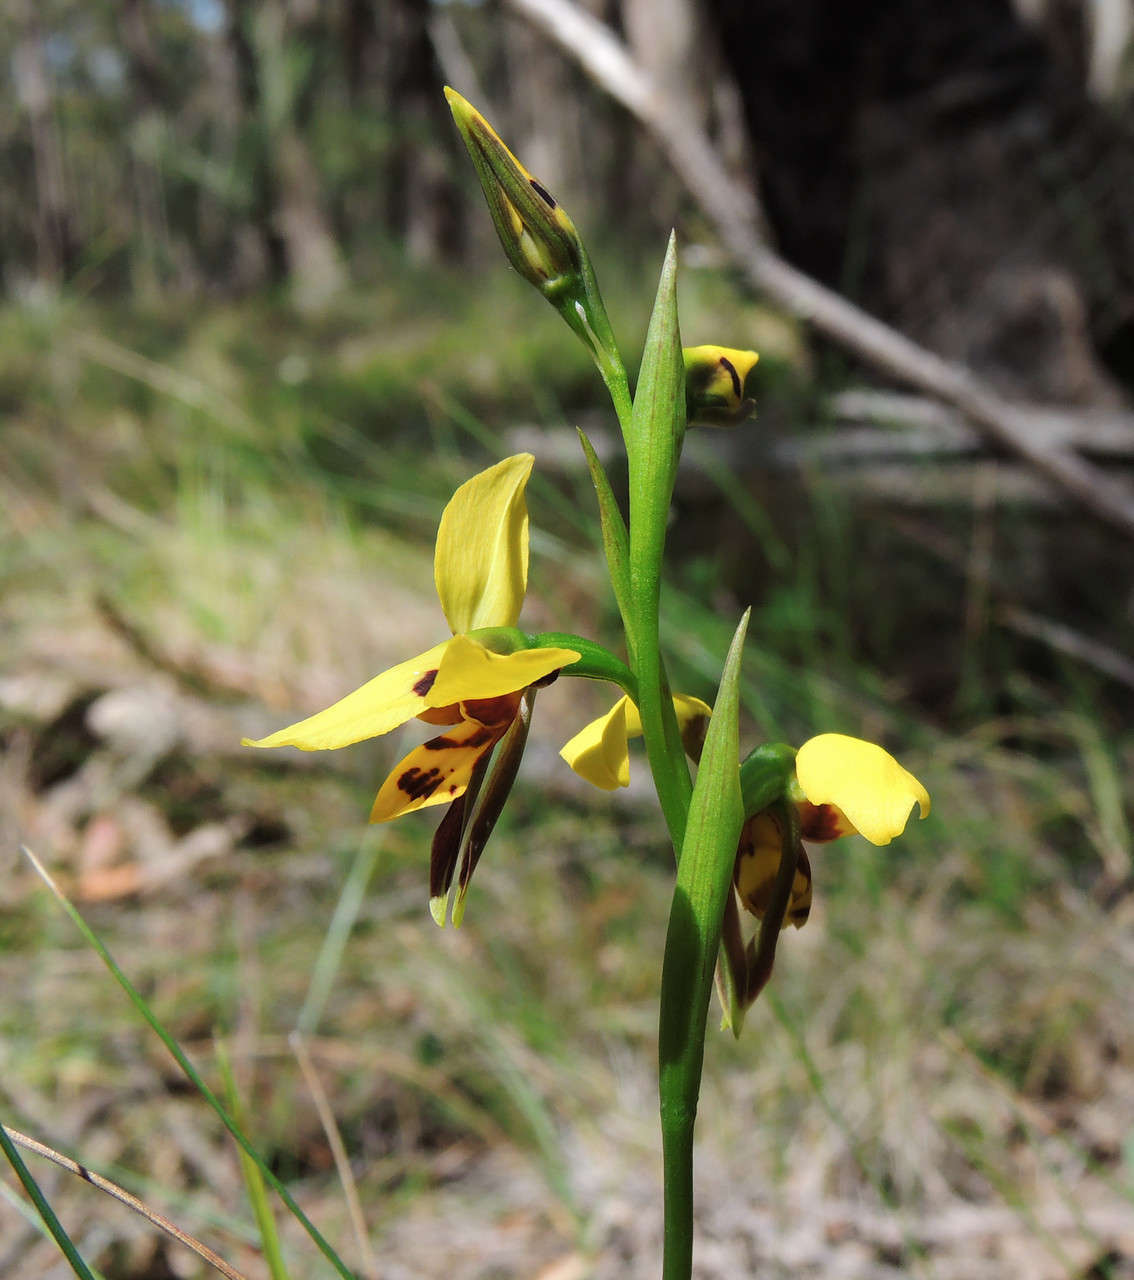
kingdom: Plantae
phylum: Tracheophyta
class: Liliopsida
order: Asparagales
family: Orchidaceae
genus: Diuris
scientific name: Diuris sulphurea
